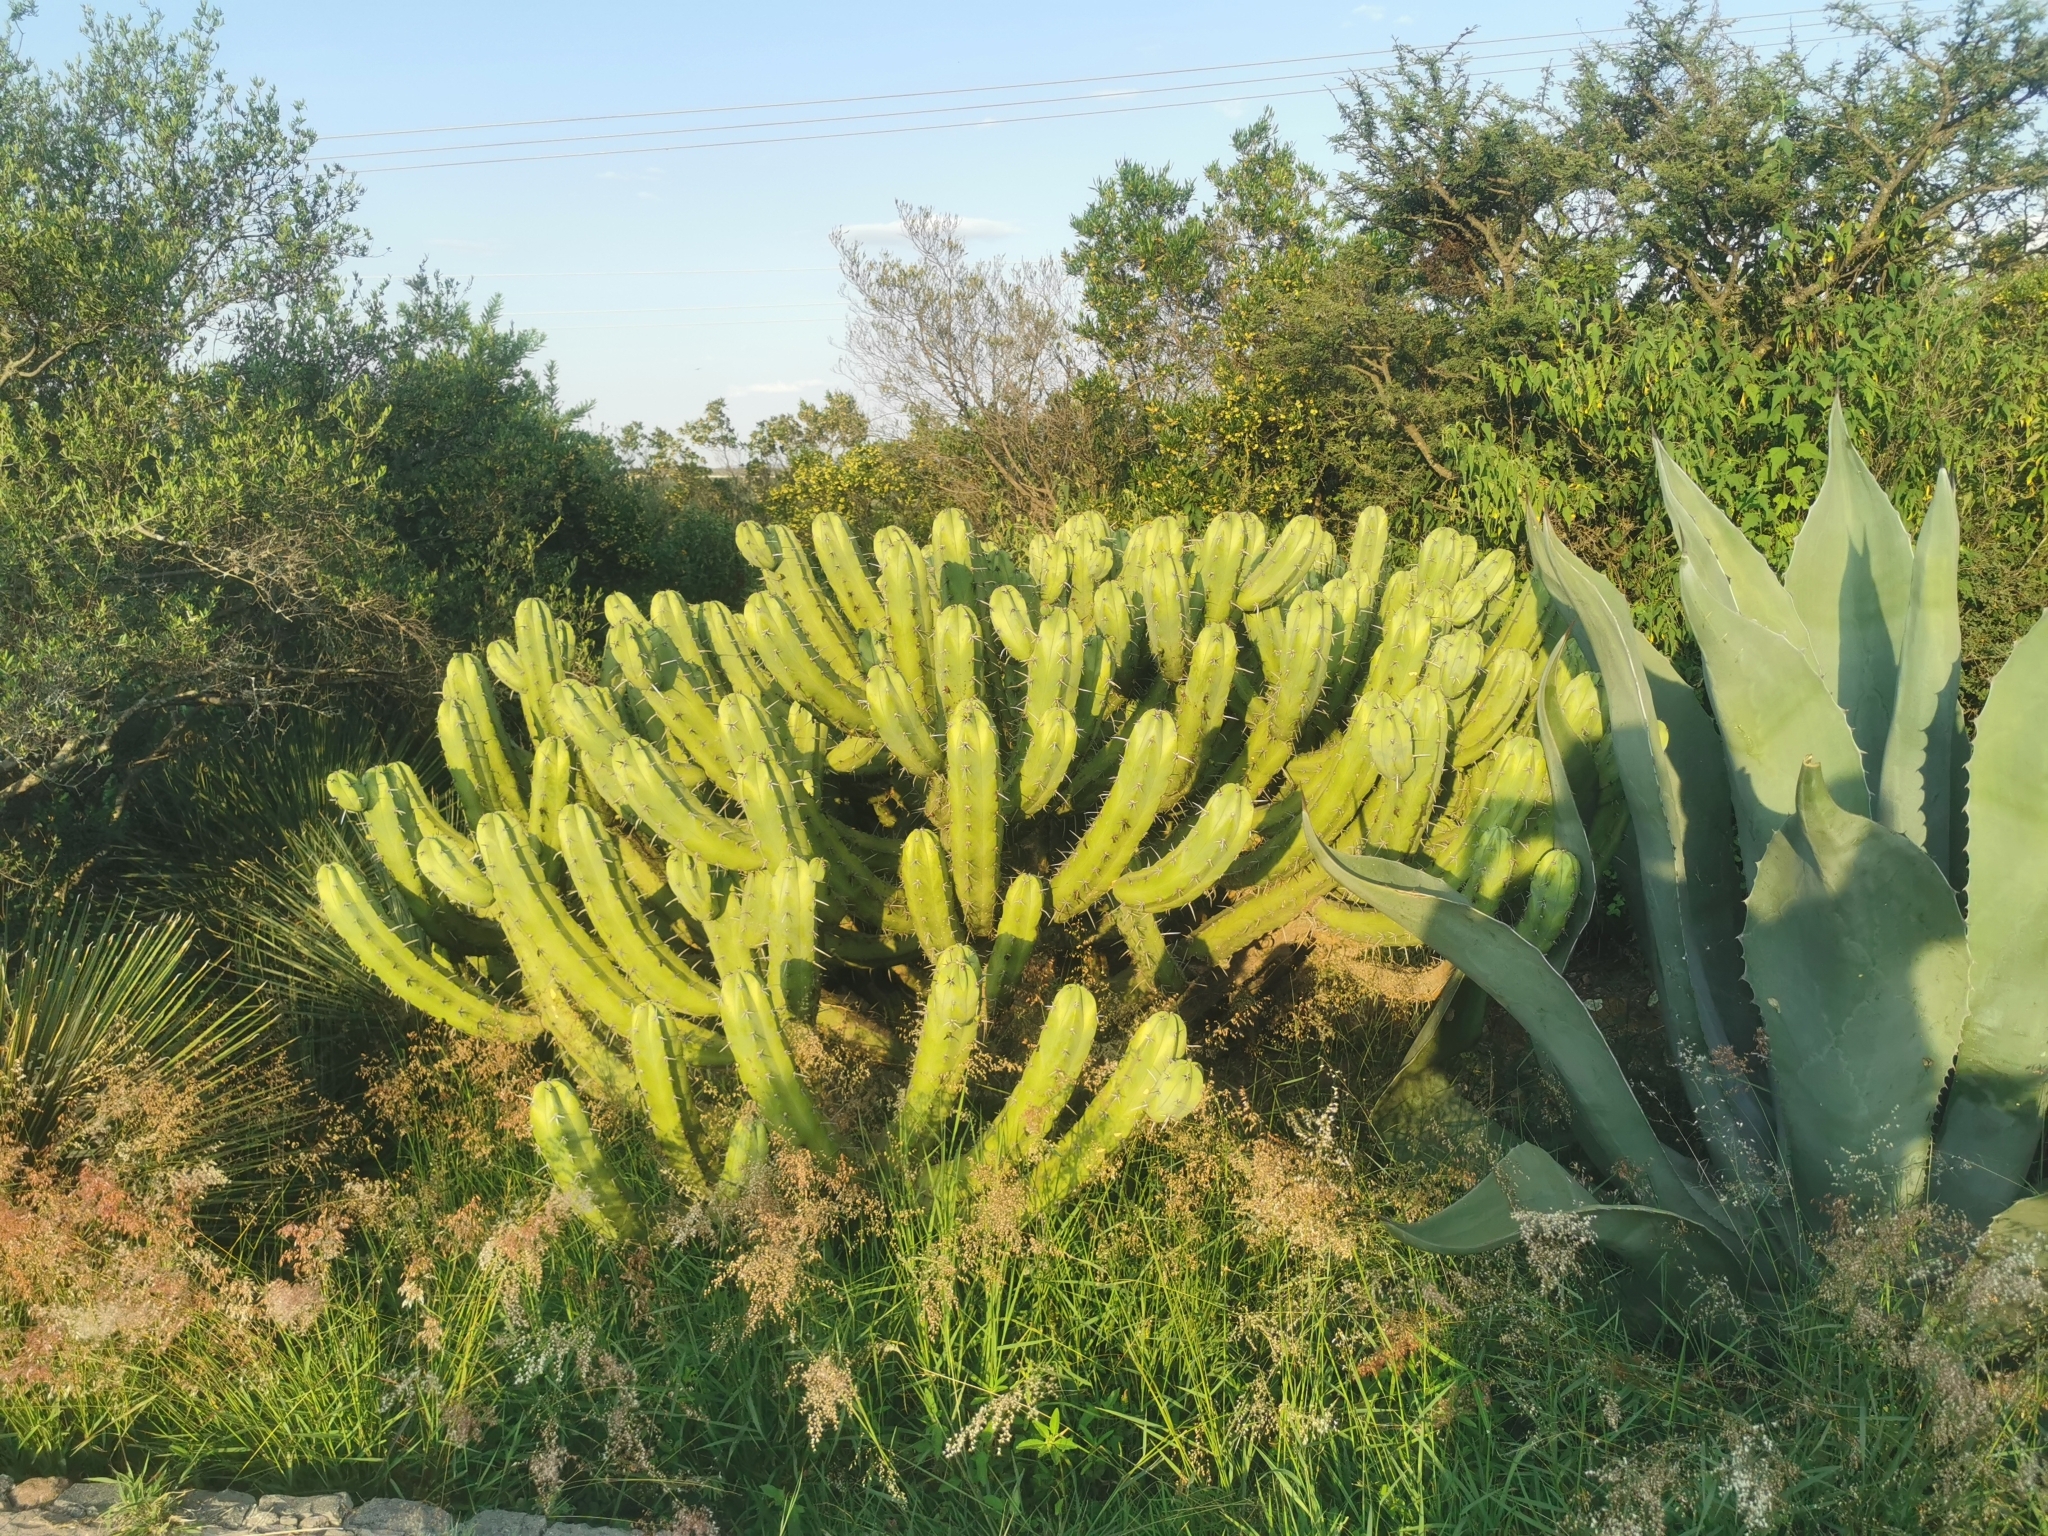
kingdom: Plantae
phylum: Tracheophyta
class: Magnoliopsida
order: Caryophyllales
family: Cactaceae
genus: Myrtillocactus
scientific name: Myrtillocactus geometrizans
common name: Bilberry cactus
